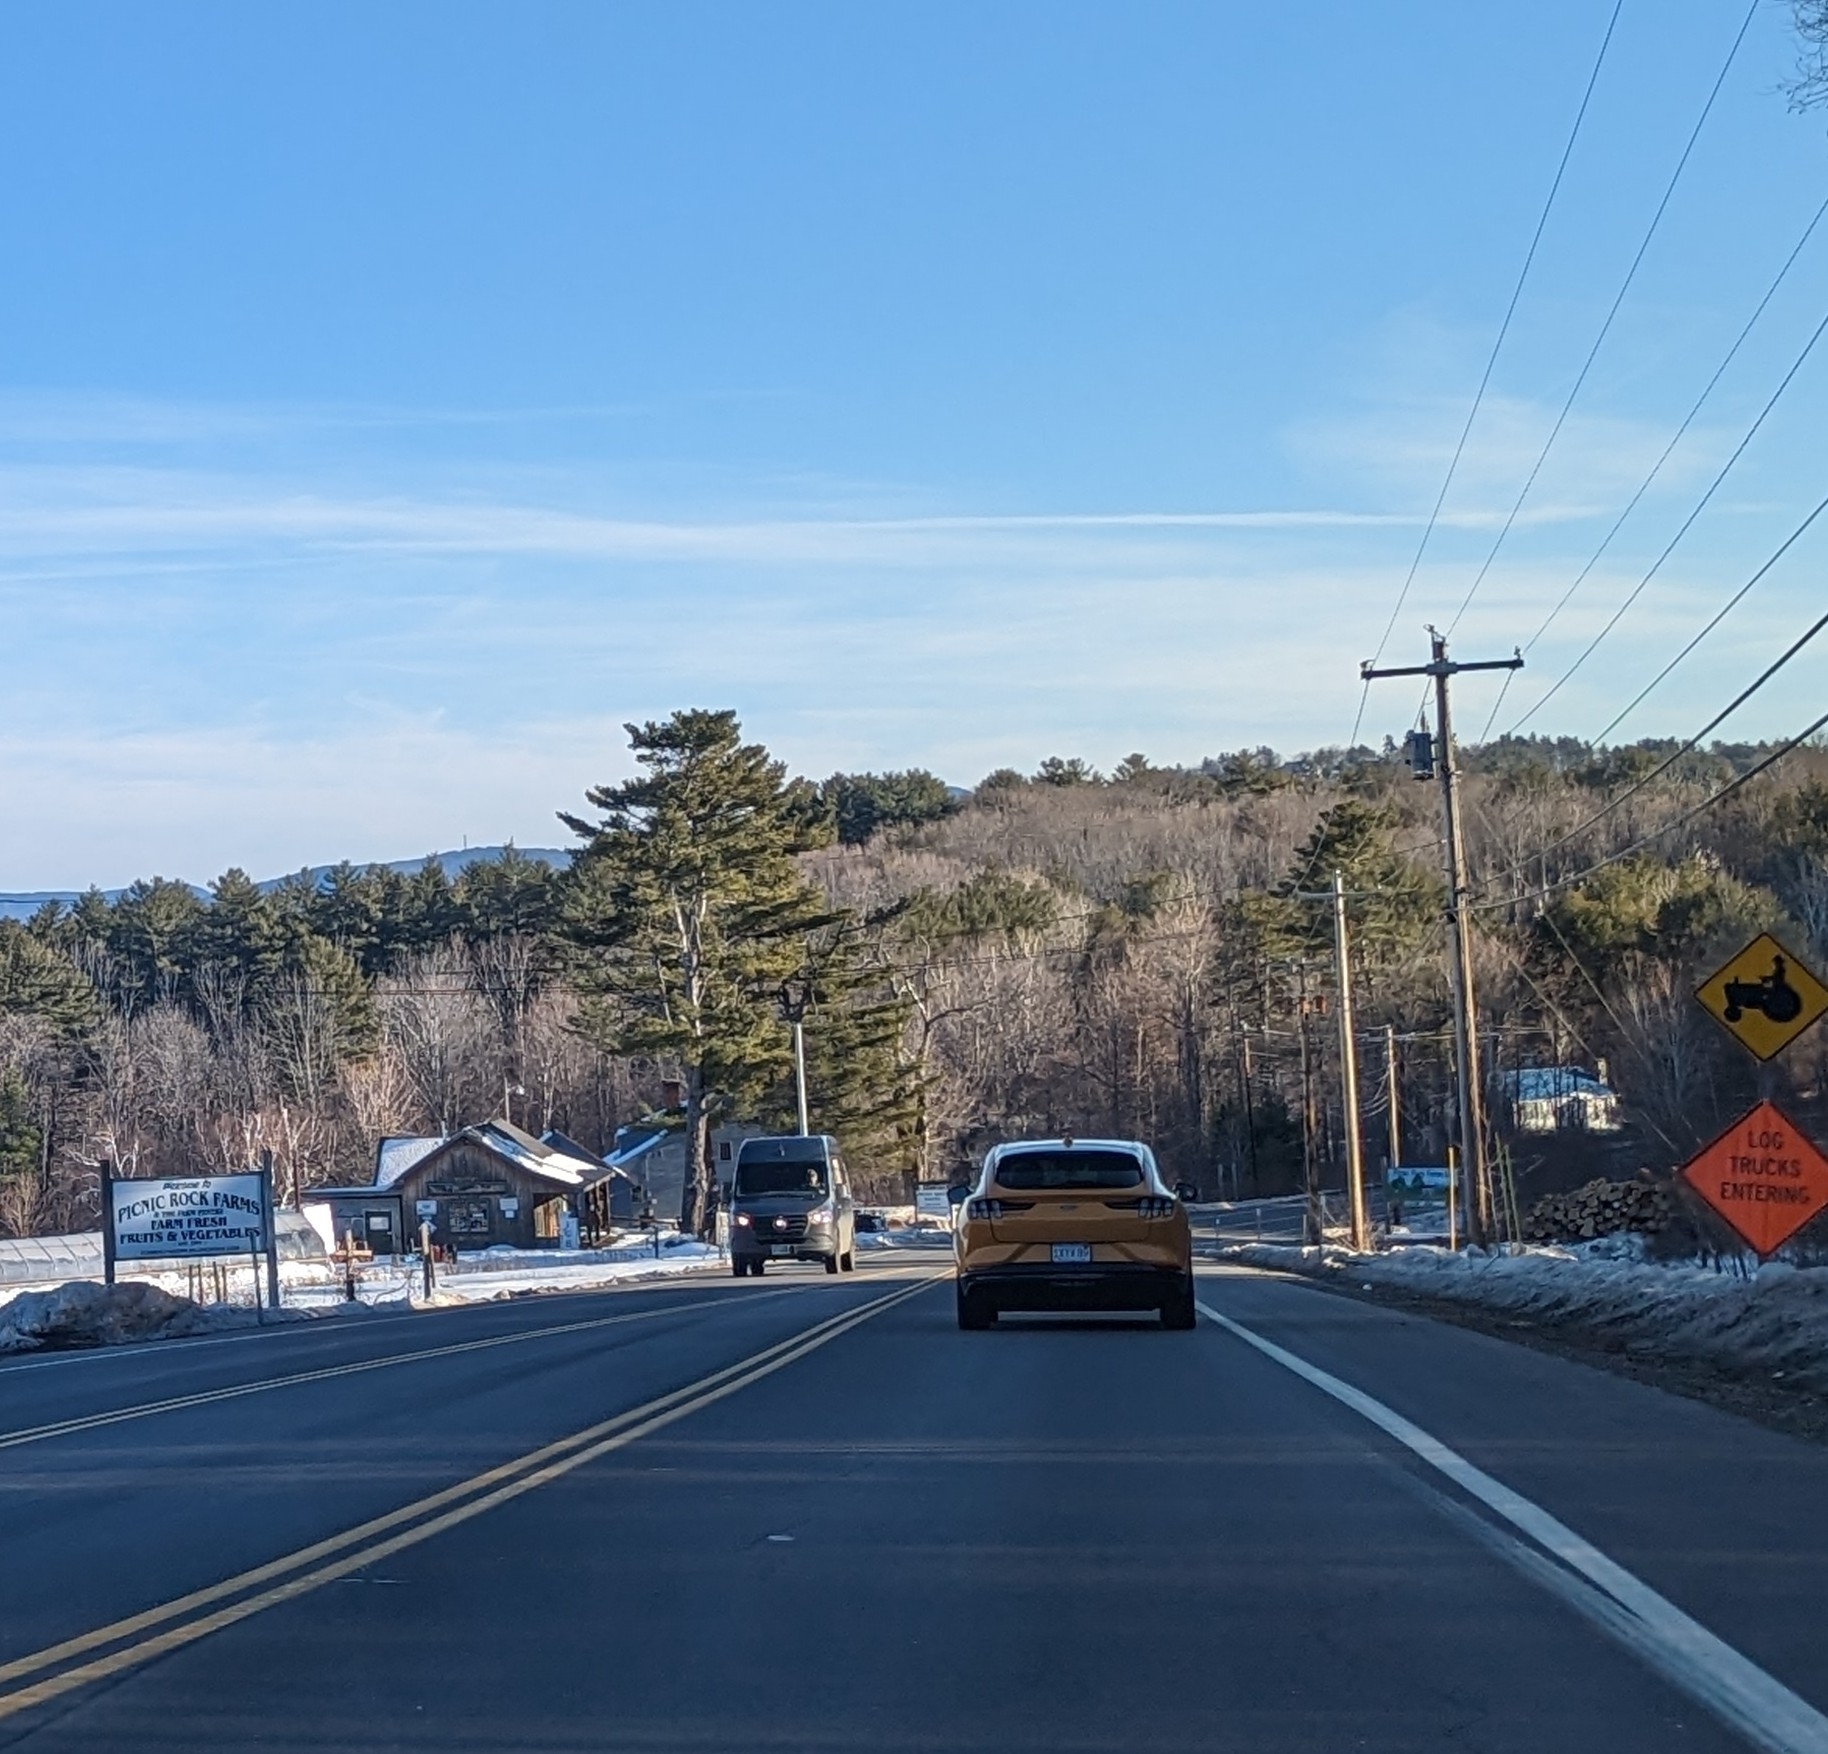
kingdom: Plantae
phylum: Tracheophyta
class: Pinopsida
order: Pinales
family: Pinaceae
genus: Pinus
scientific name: Pinus strobus
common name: Weymouth pine
